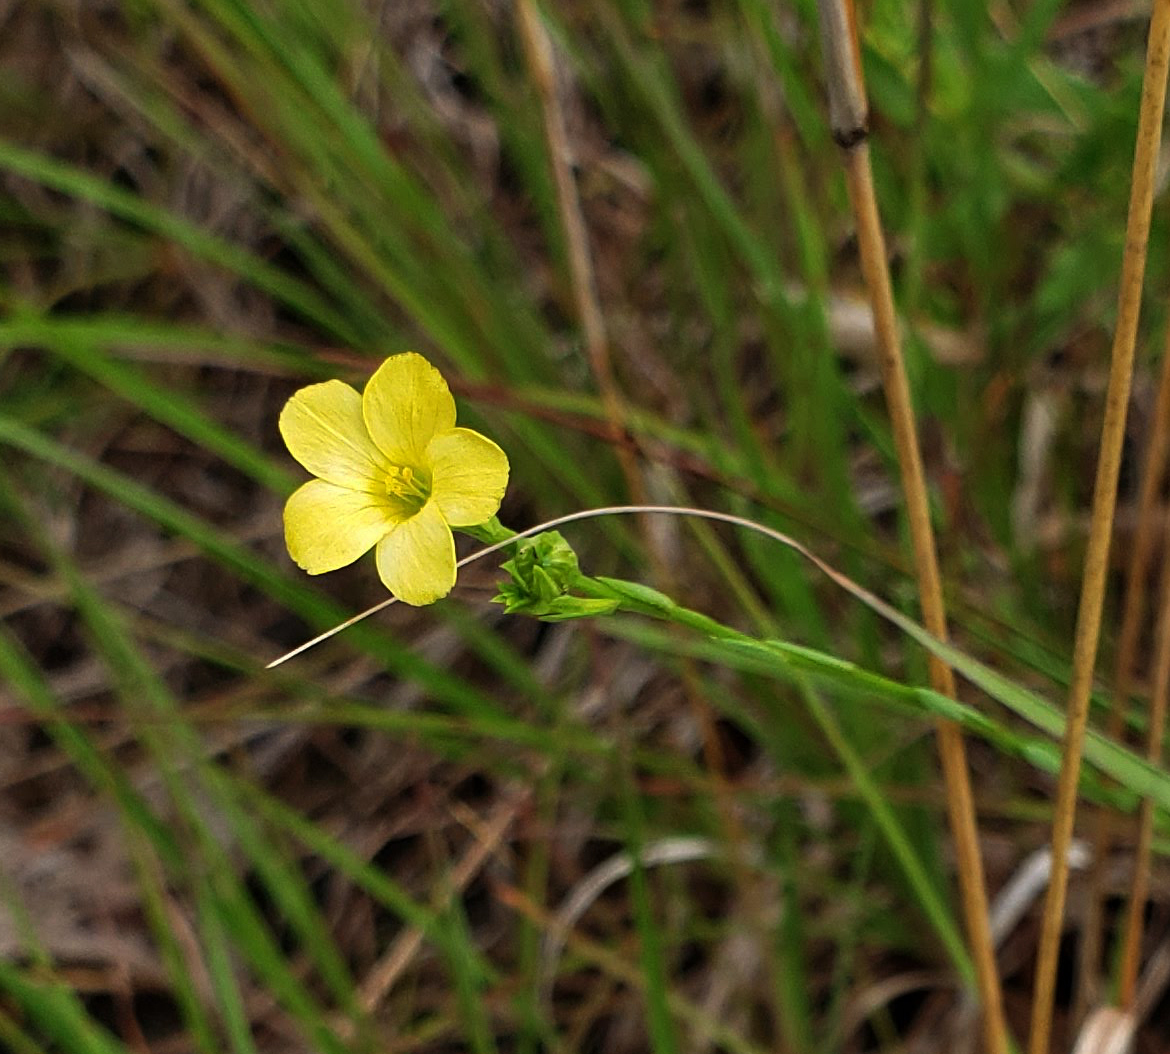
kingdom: Plantae
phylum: Tracheophyta
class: Magnoliopsida
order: Malpighiales
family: Linaceae
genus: Linum
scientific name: Linum sulcatum
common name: Grooved flax
